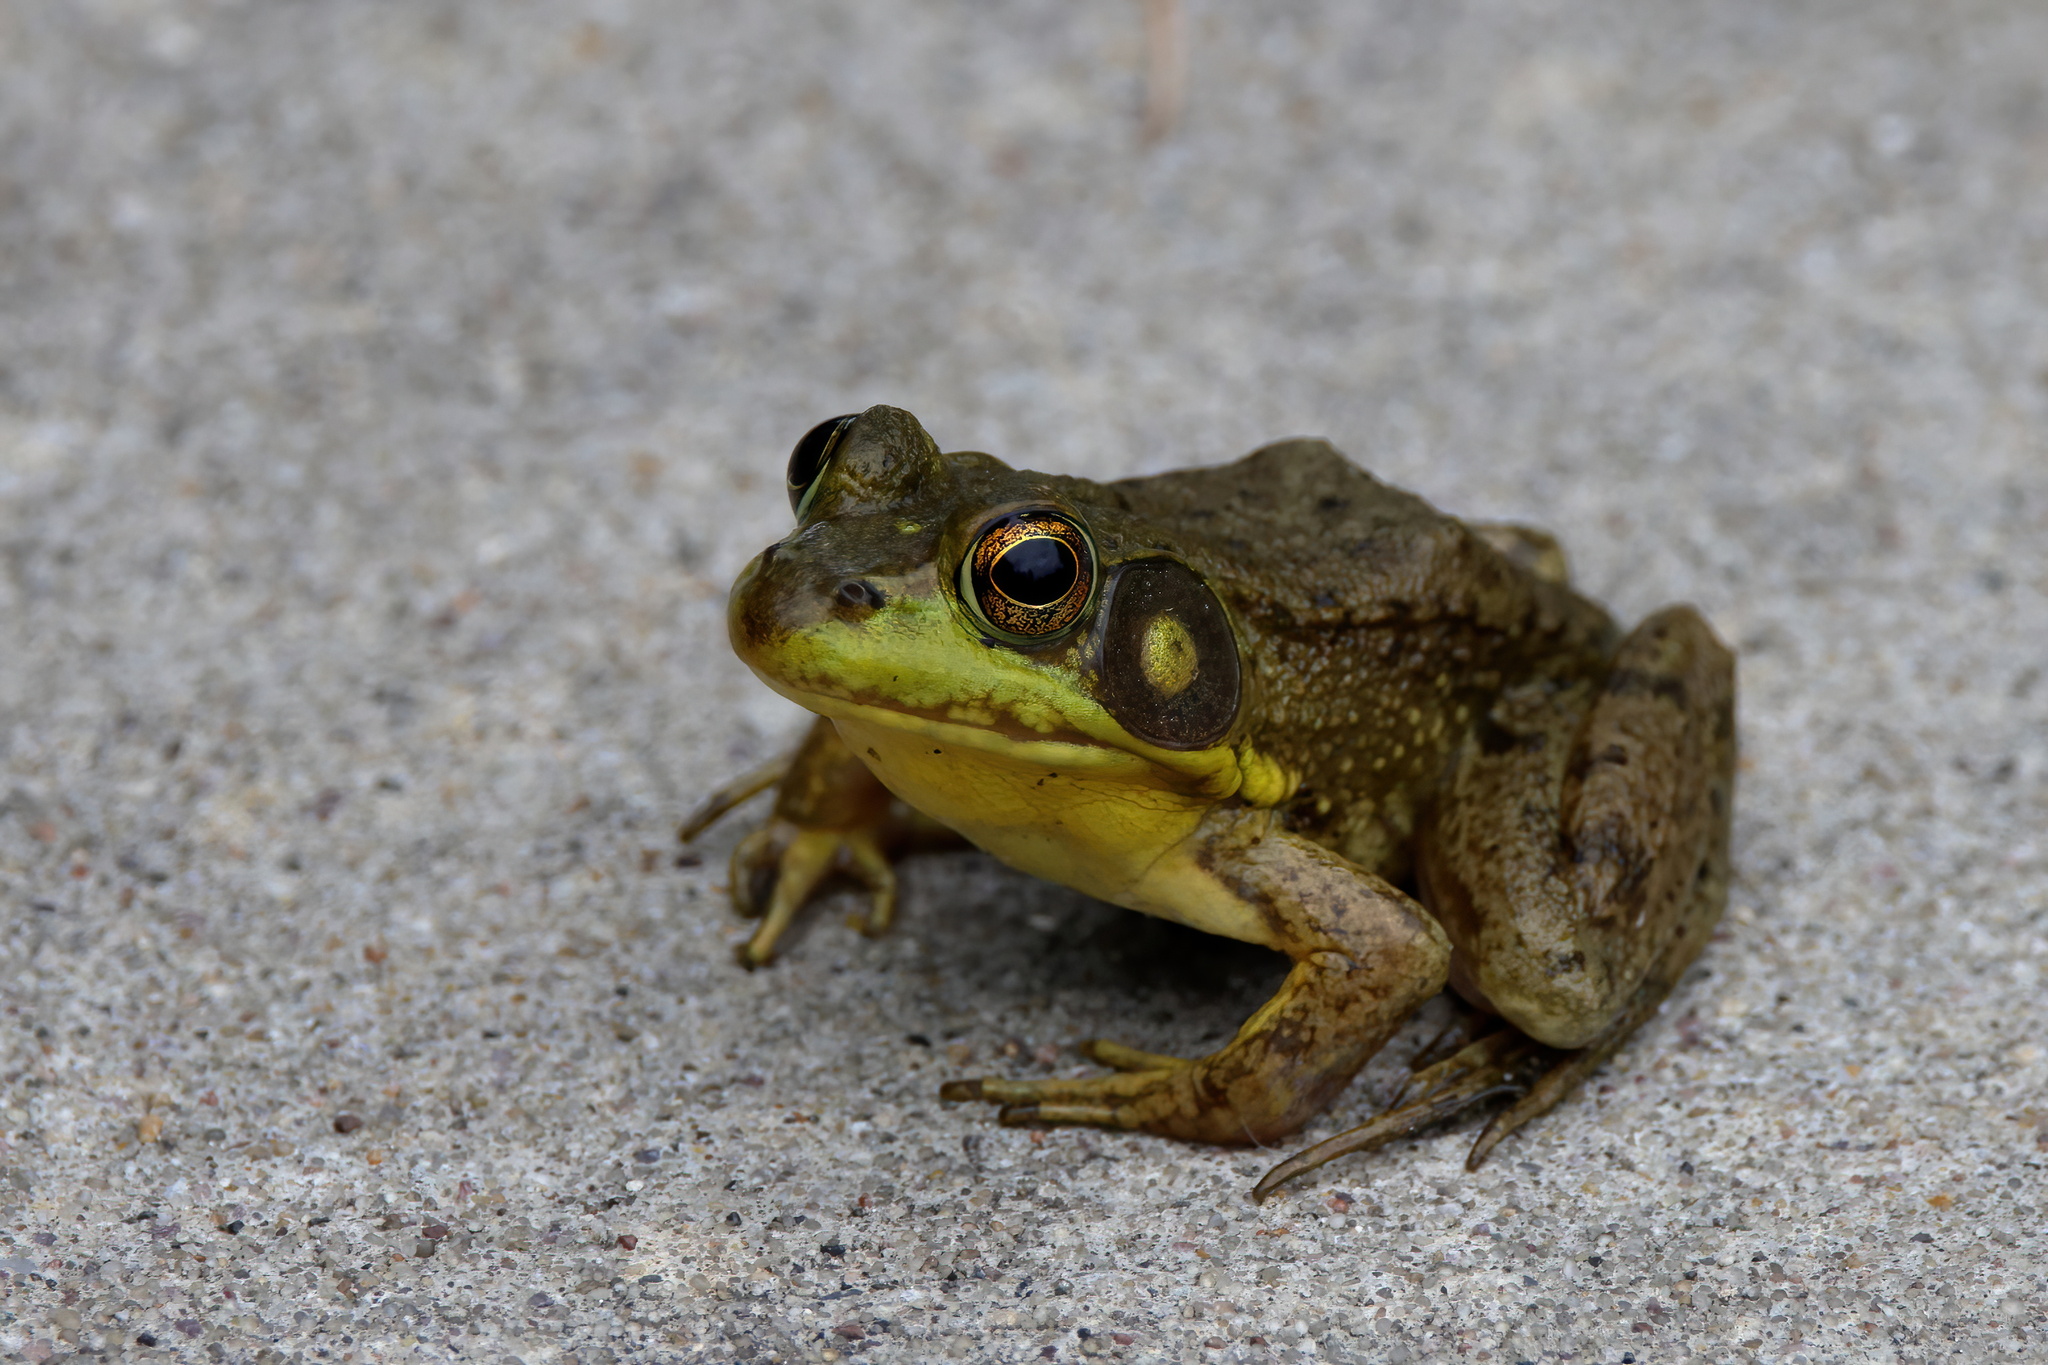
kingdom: Animalia
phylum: Chordata
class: Amphibia
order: Anura
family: Ranidae
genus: Lithobates
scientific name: Lithobates clamitans
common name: Green frog
